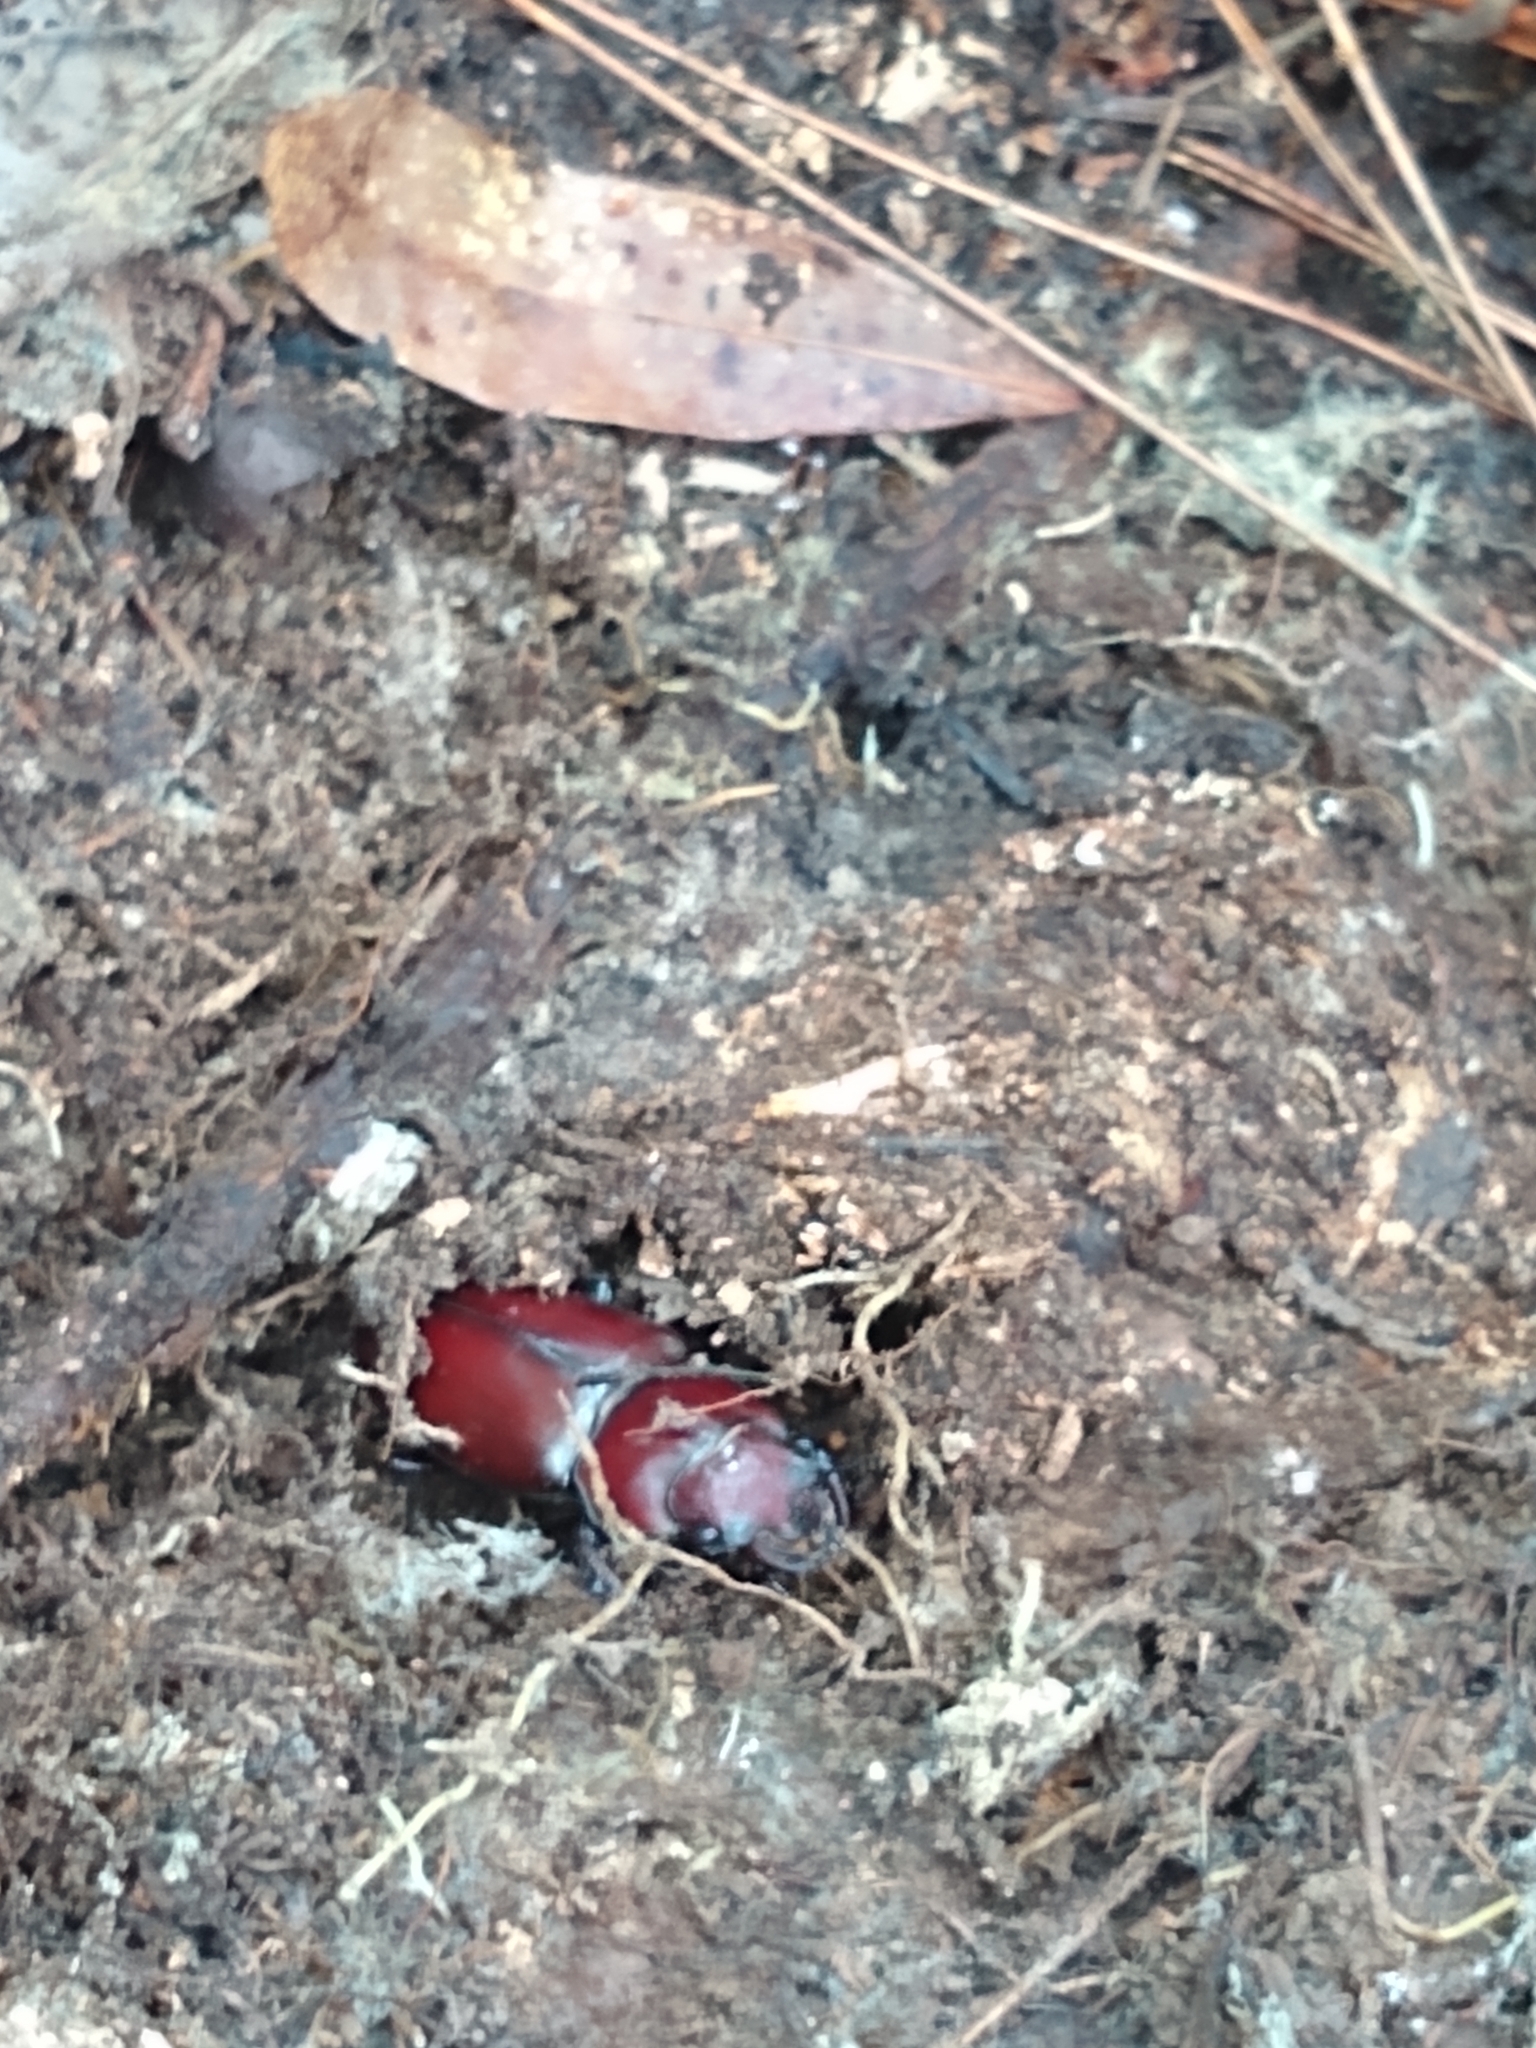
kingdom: Animalia
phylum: Arthropoda
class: Insecta
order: Coleoptera
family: Lucanidae
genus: Lucanus
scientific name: Lucanus elaphus
